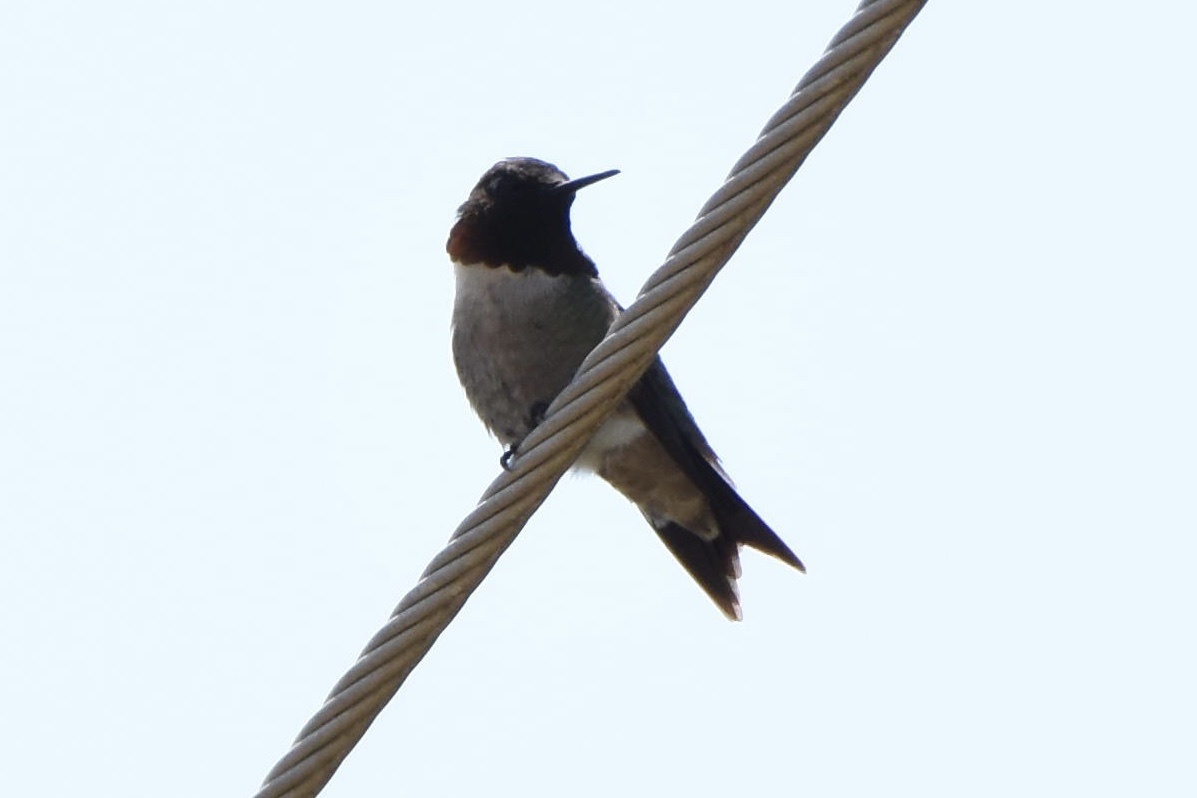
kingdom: Animalia
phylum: Chordata
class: Aves
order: Apodiformes
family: Trochilidae
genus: Archilochus
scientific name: Archilochus colubris
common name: Ruby-throated hummingbird
